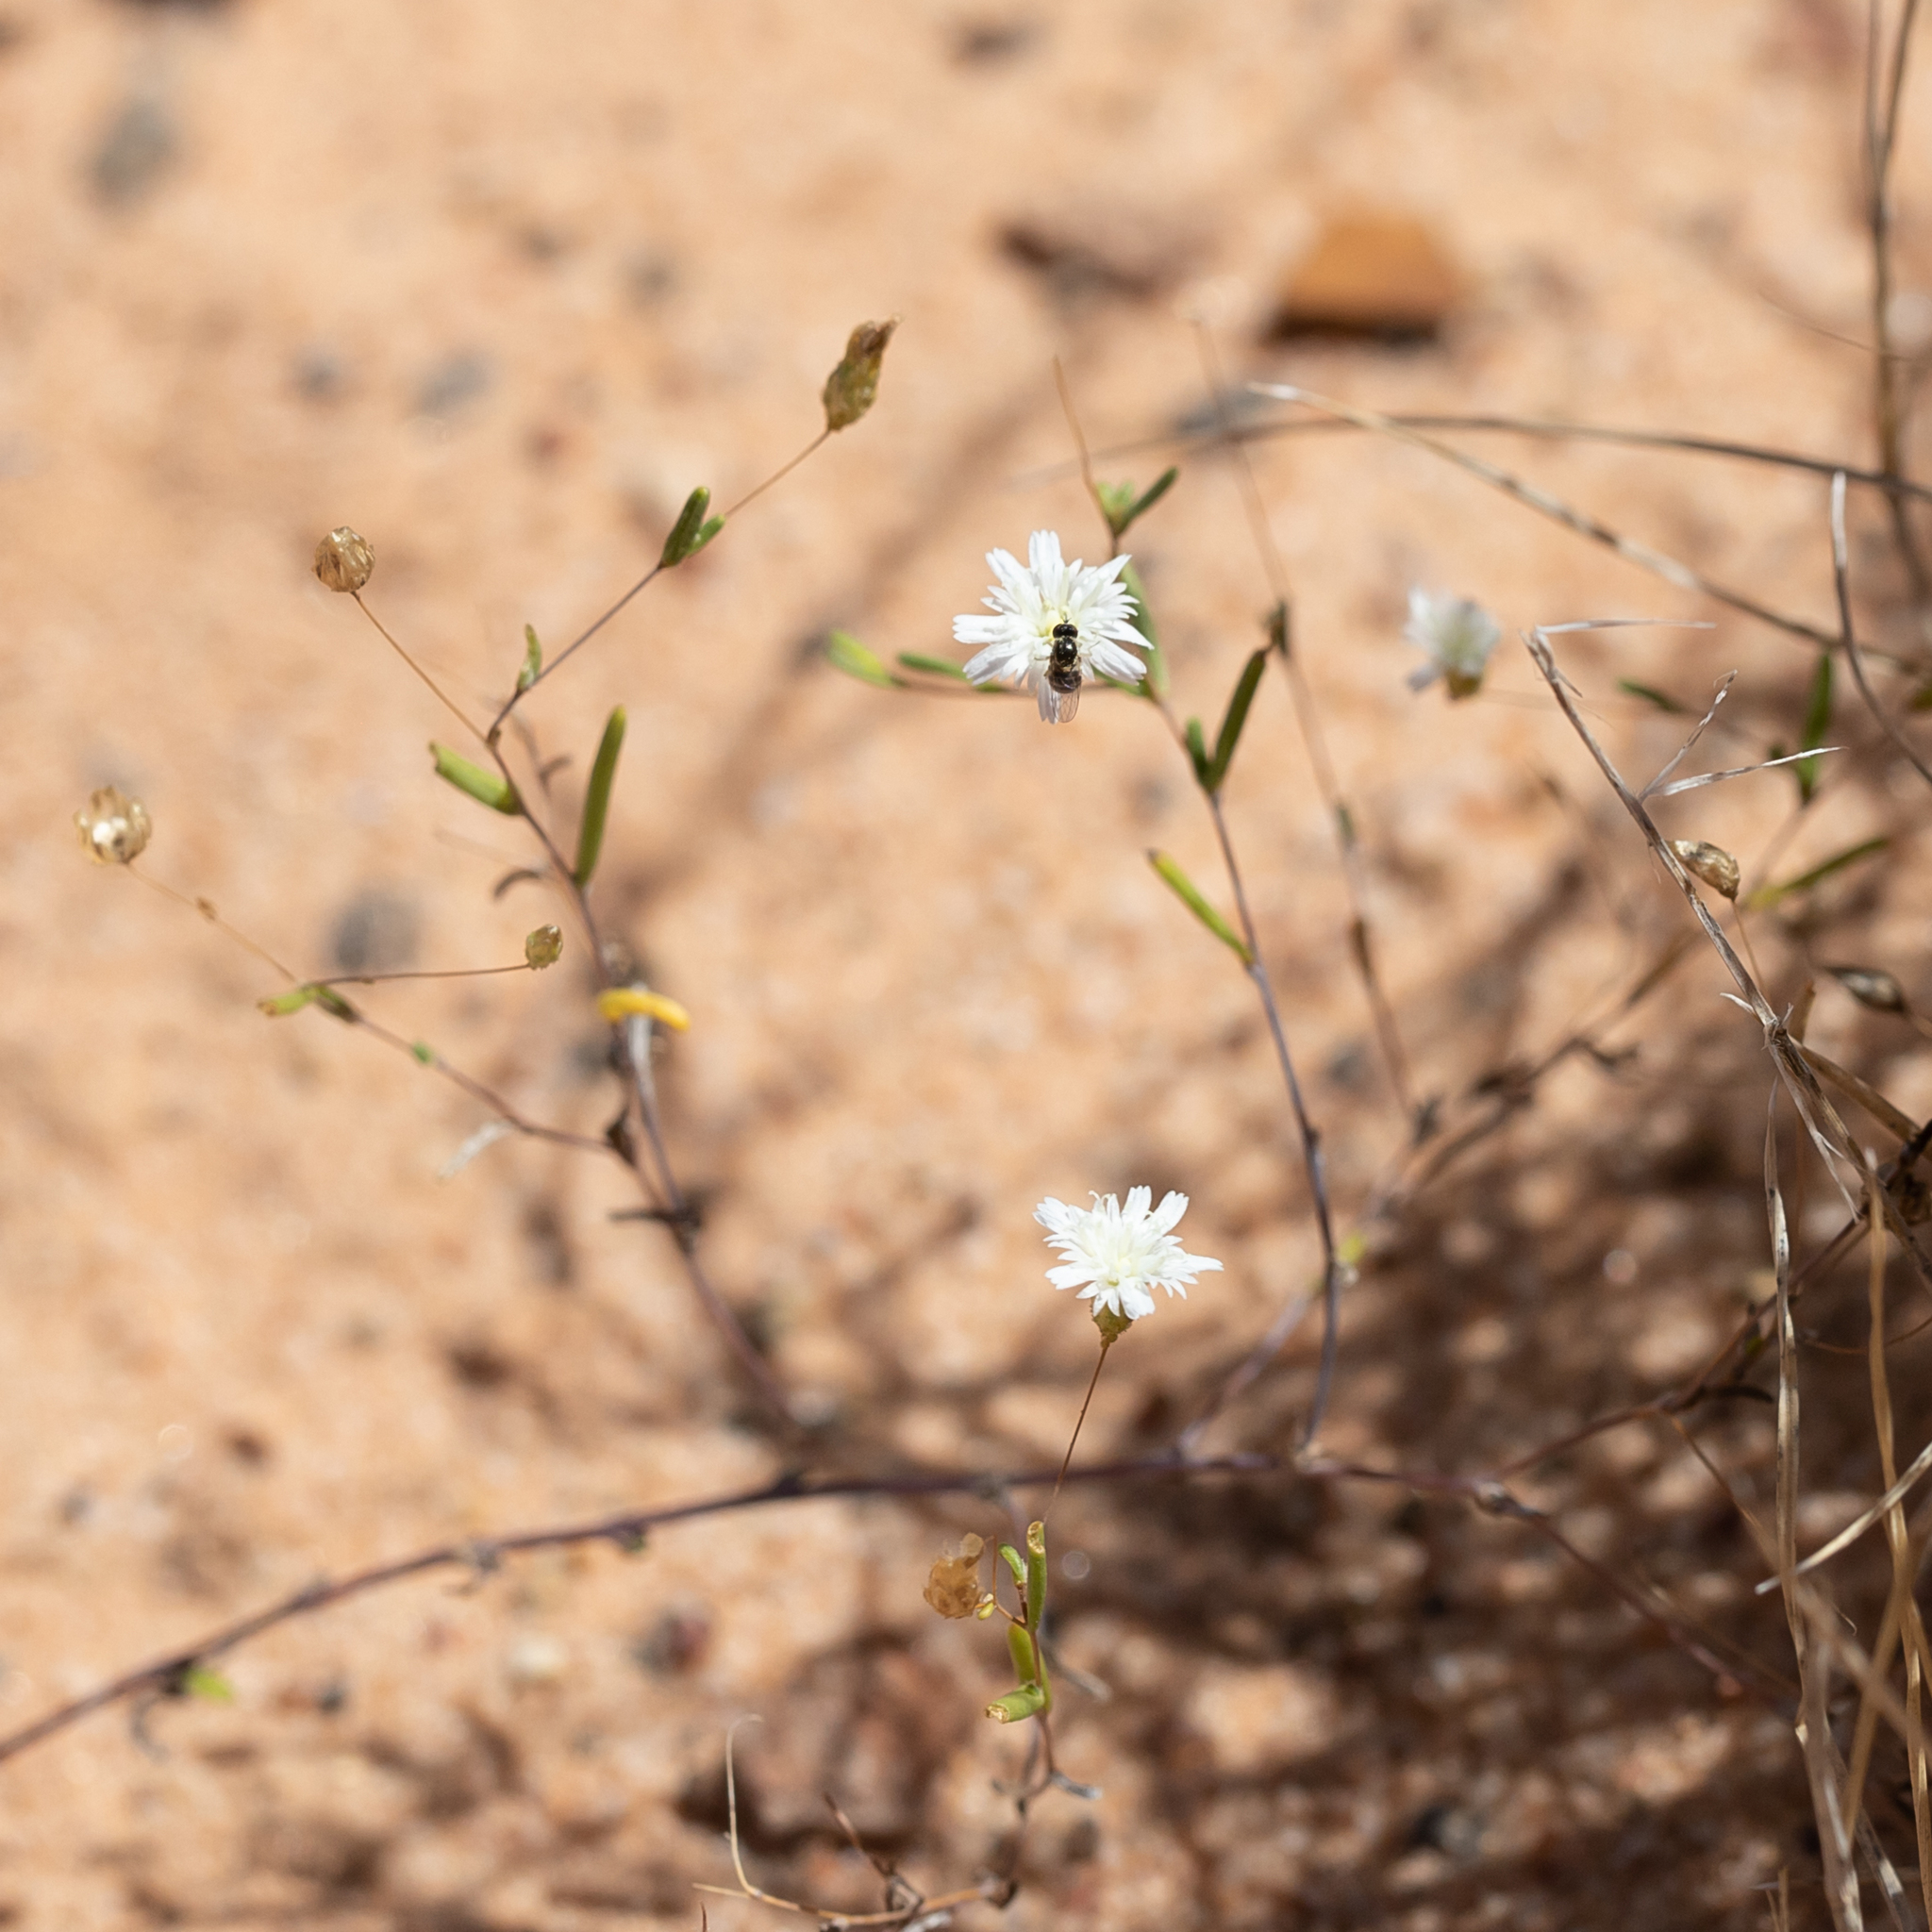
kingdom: Plantae
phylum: Tracheophyta
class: Magnoliopsida
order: Asterales
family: Asteraceae
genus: Siemssenia
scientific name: Siemssenia capillaris
